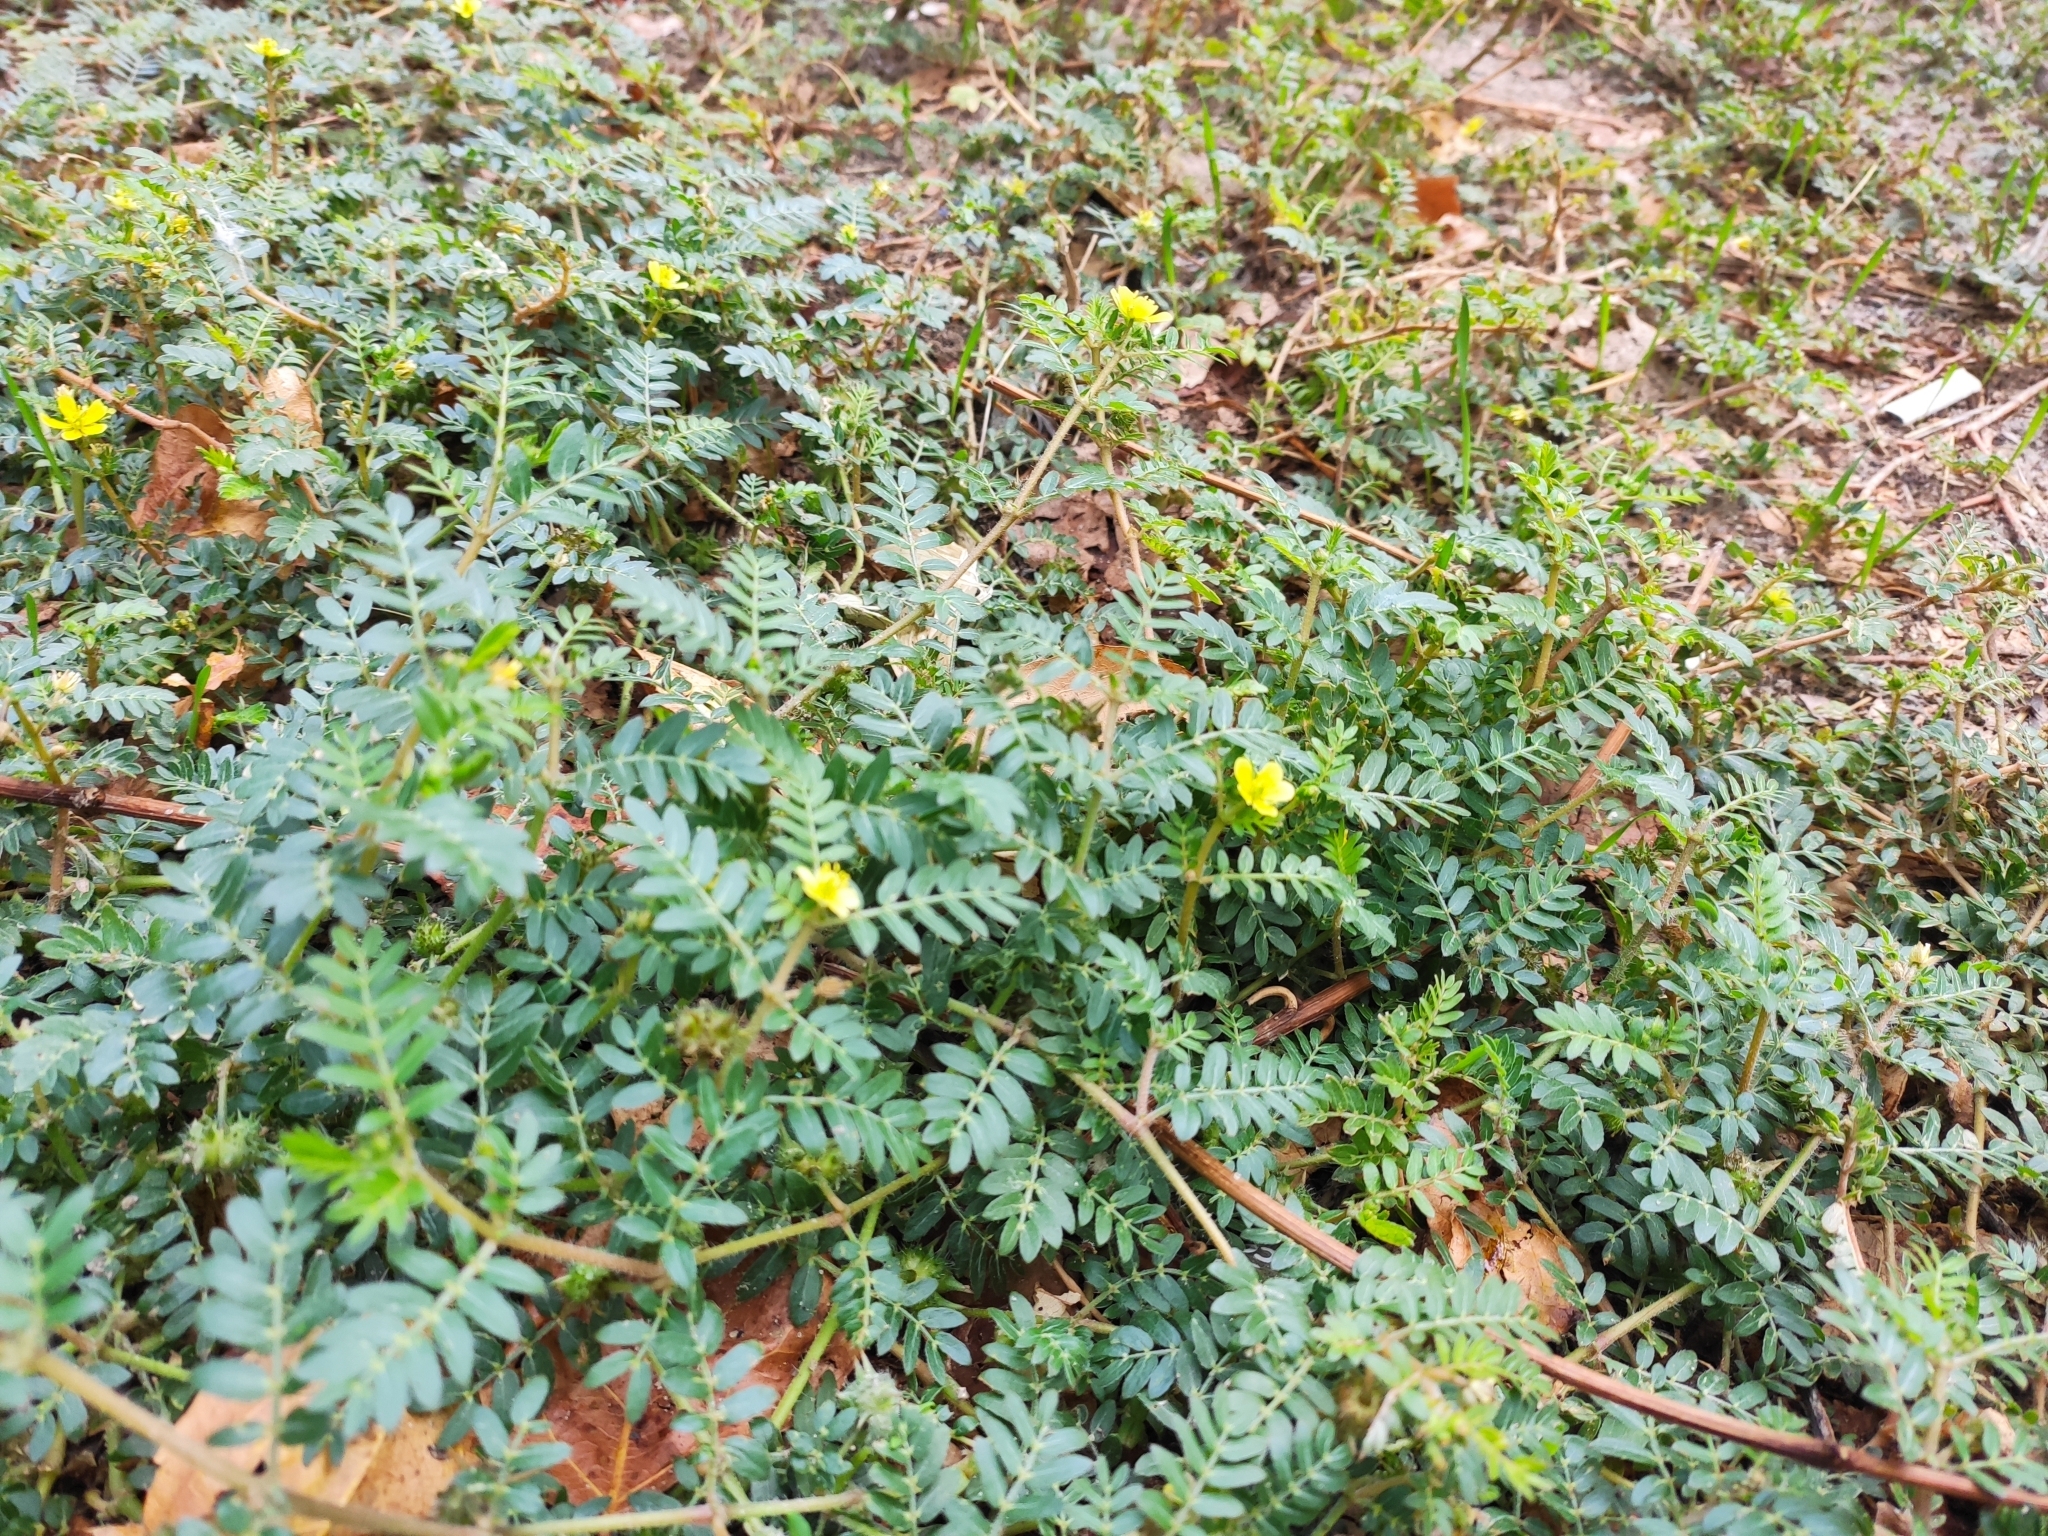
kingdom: Plantae
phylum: Tracheophyta
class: Magnoliopsida
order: Zygophyllales
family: Zygophyllaceae
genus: Tribulus
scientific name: Tribulus terrestris
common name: Puncturevine
